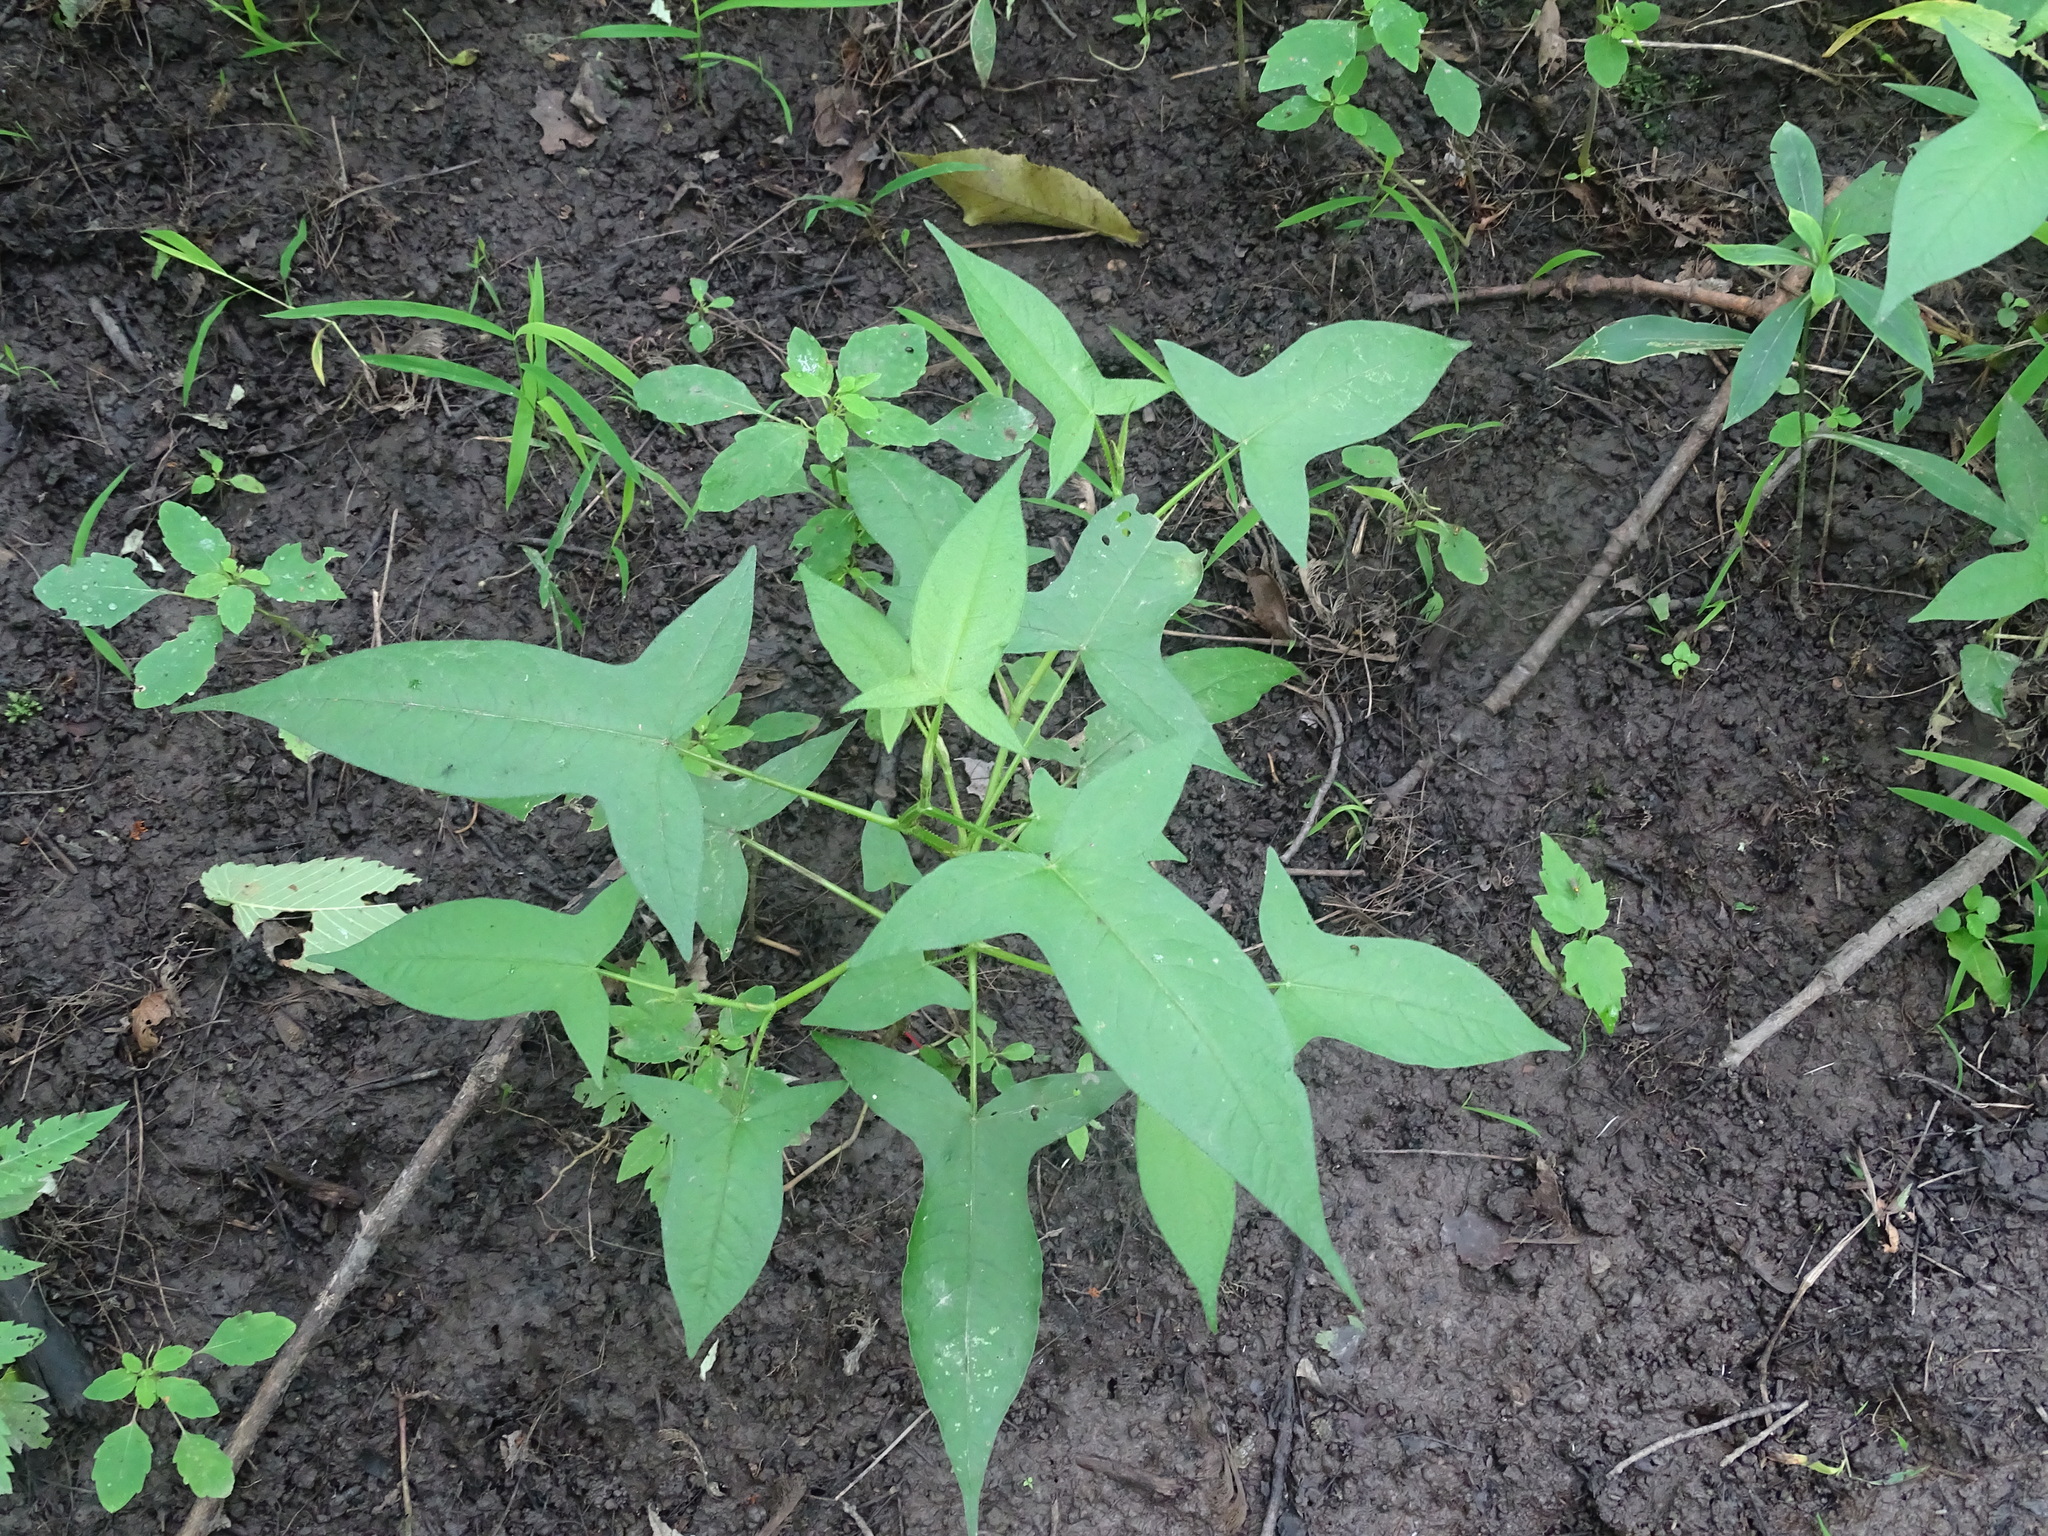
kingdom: Plantae
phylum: Tracheophyta
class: Magnoliopsida
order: Caryophyllales
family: Polygonaceae
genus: Persicaria
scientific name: Persicaria arifolia
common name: Halberd-leaved tear-thumb
